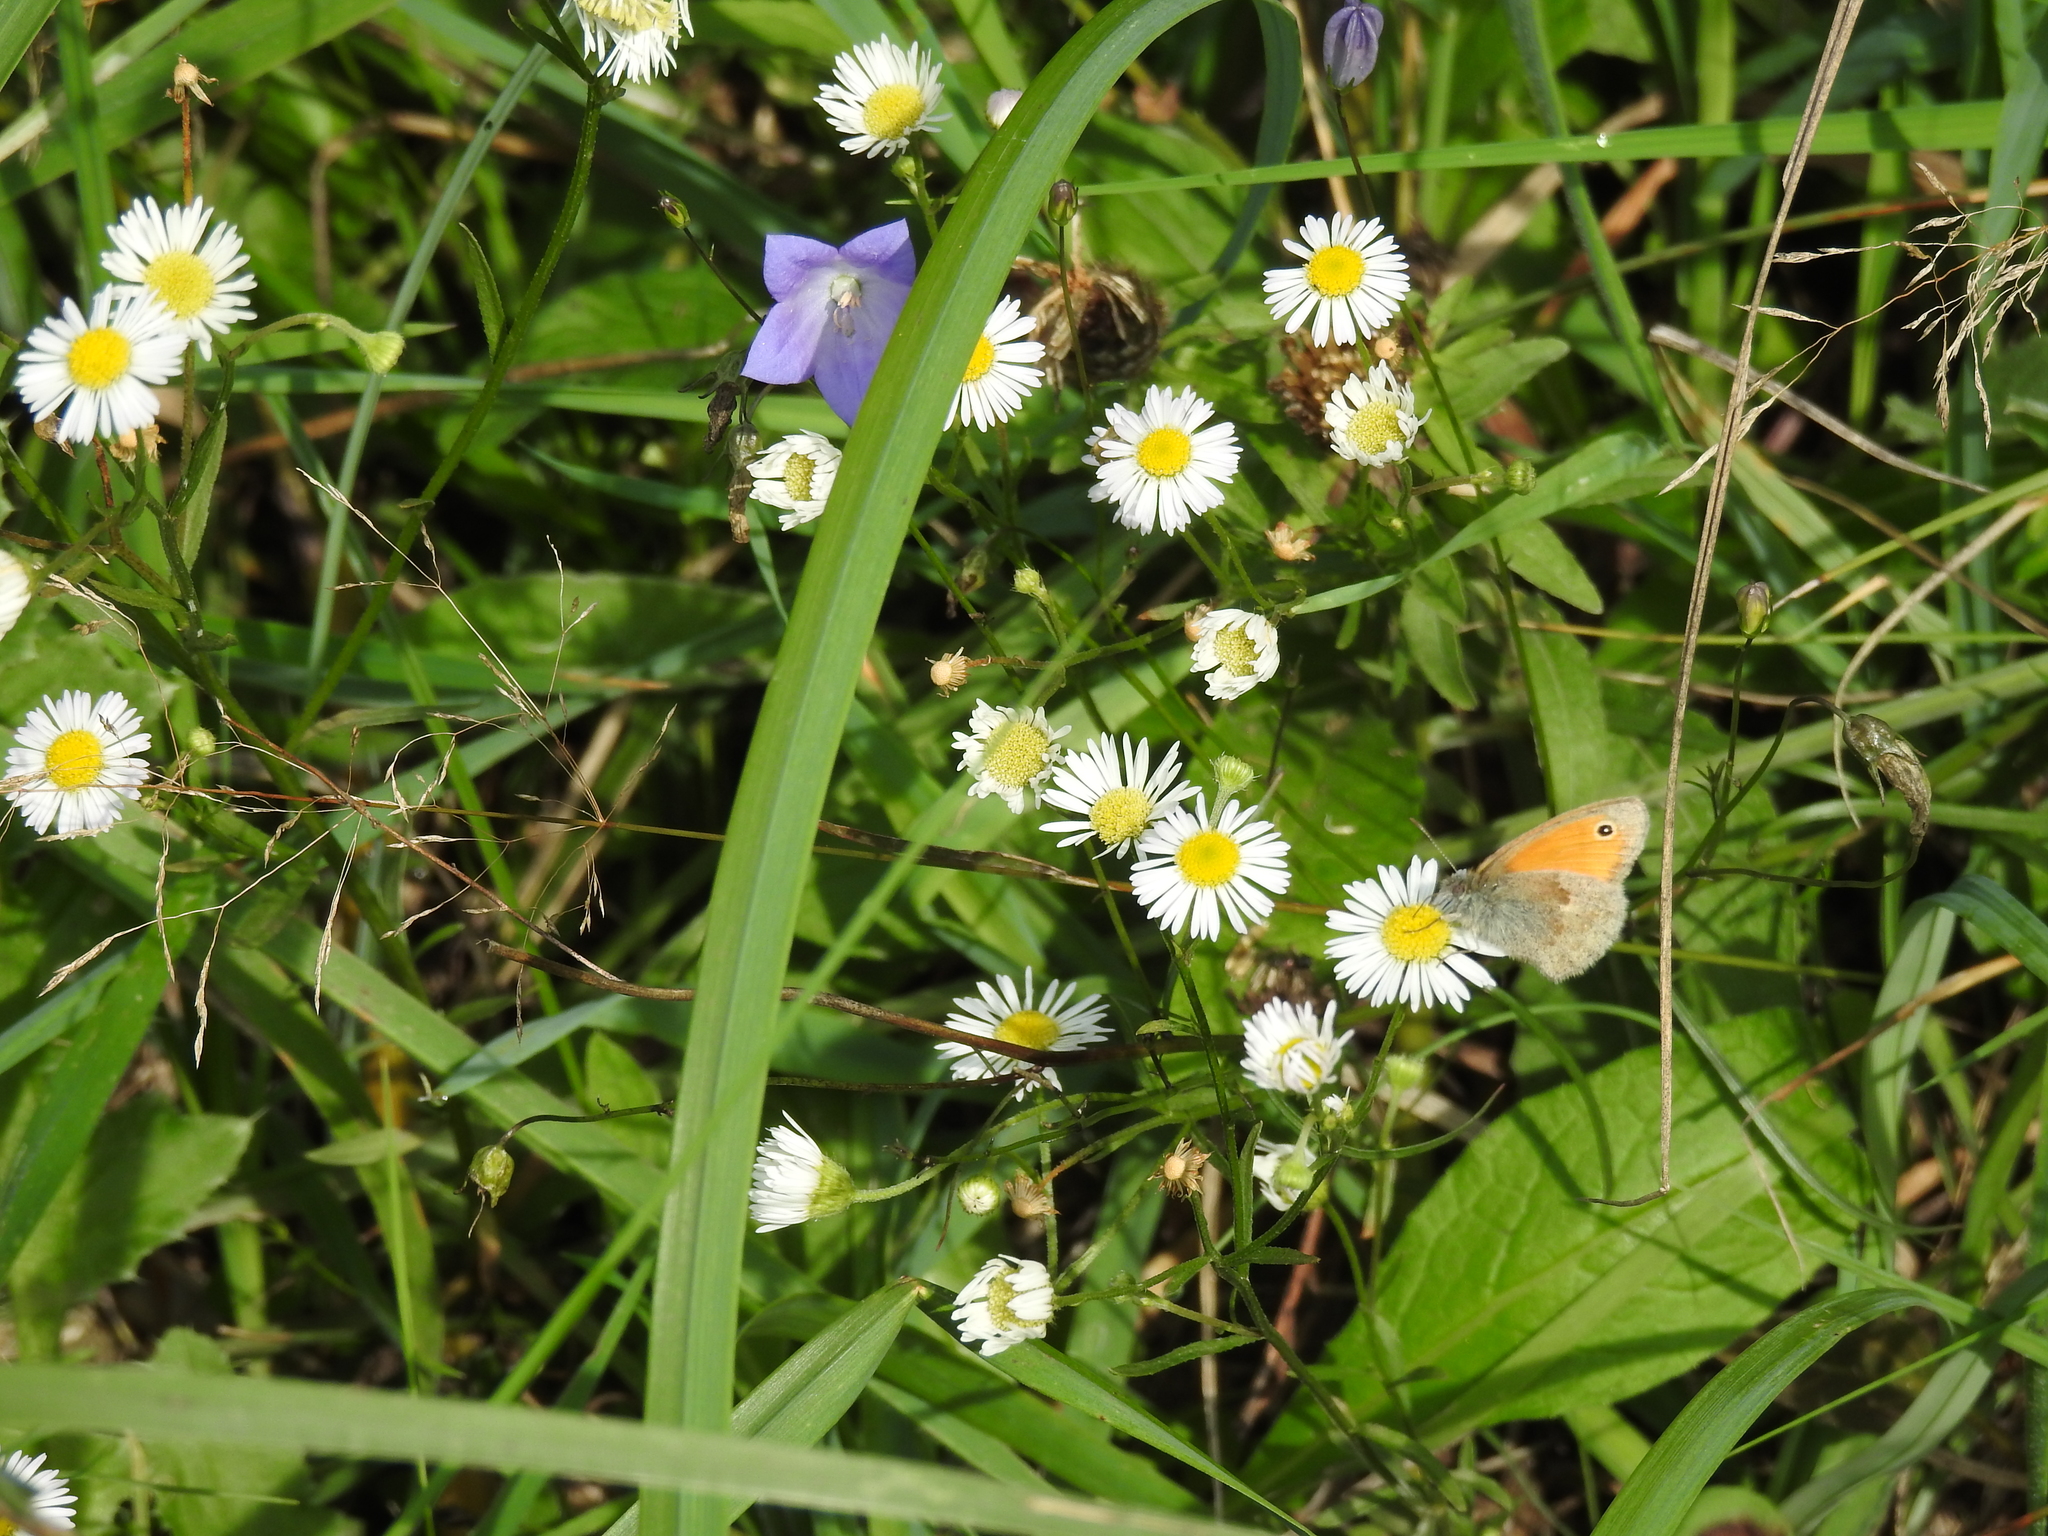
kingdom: Animalia
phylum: Arthropoda
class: Insecta
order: Lepidoptera
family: Nymphalidae
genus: Coenonympha
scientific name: Coenonympha pamphilus
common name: Small heath
